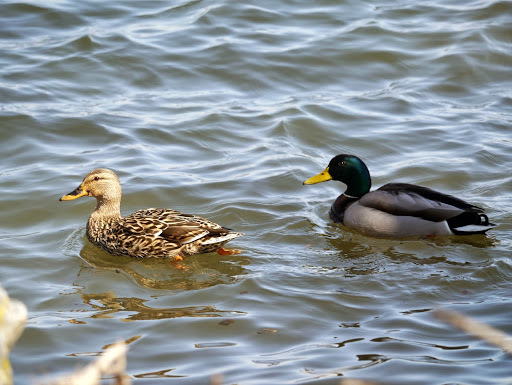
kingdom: Animalia
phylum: Chordata
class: Aves
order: Anseriformes
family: Anatidae
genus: Anas
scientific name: Anas platyrhynchos
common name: Mallard
